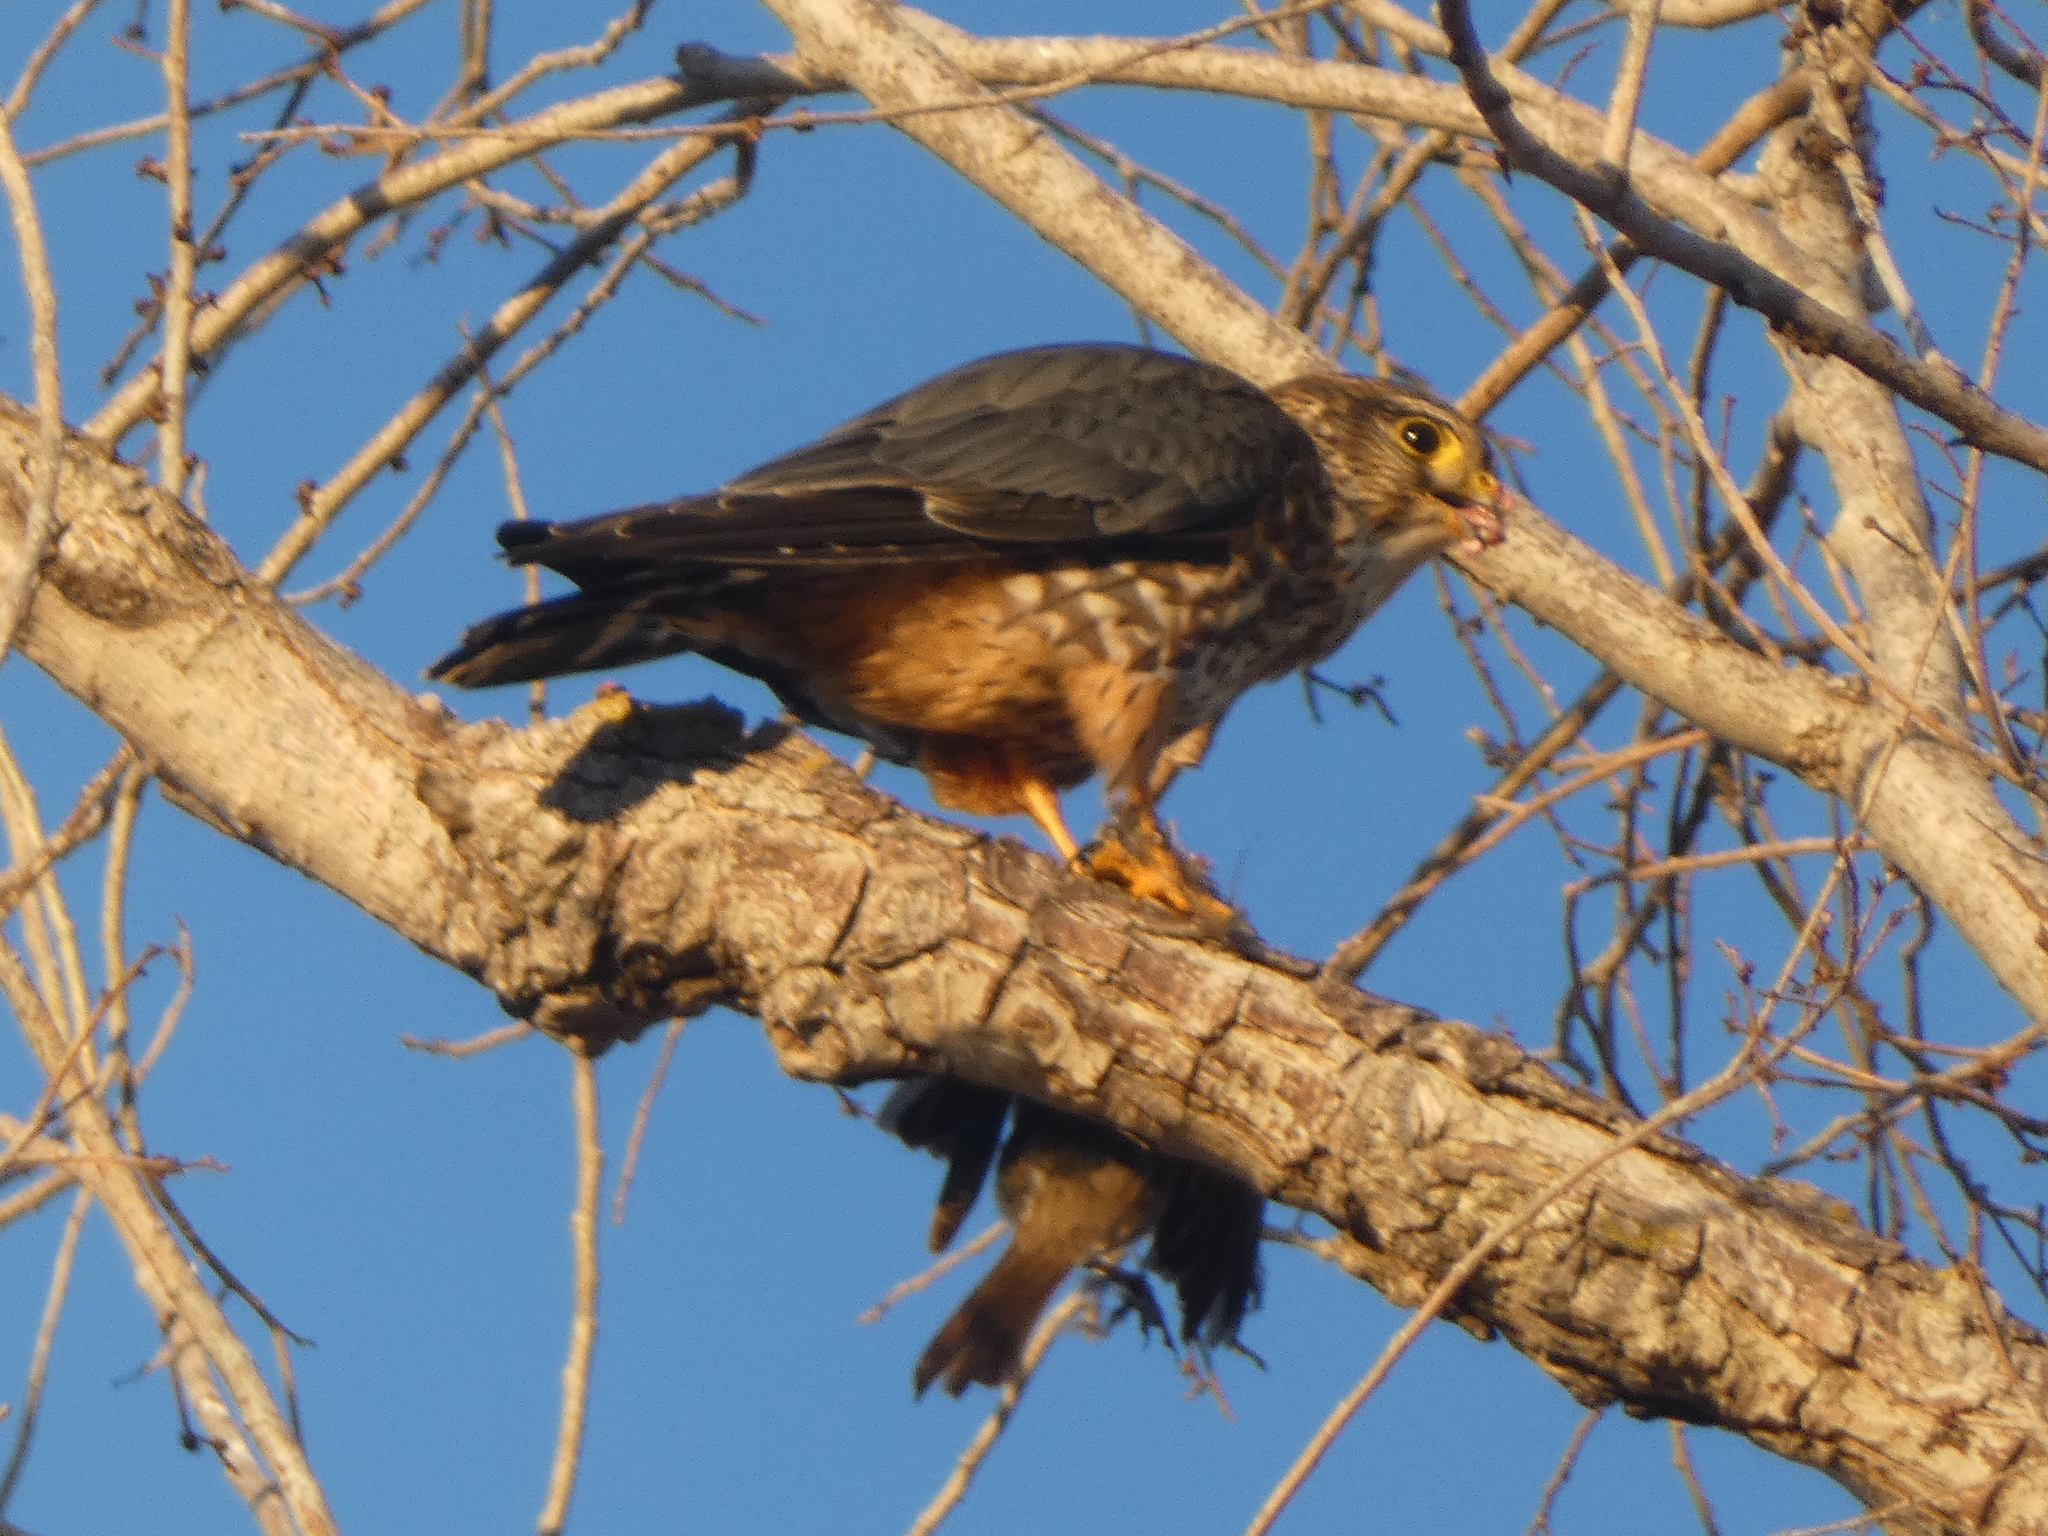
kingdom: Animalia
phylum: Chordata
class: Aves
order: Falconiformes
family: Falconidae
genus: Falco
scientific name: Falco columbarius
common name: Merlin
